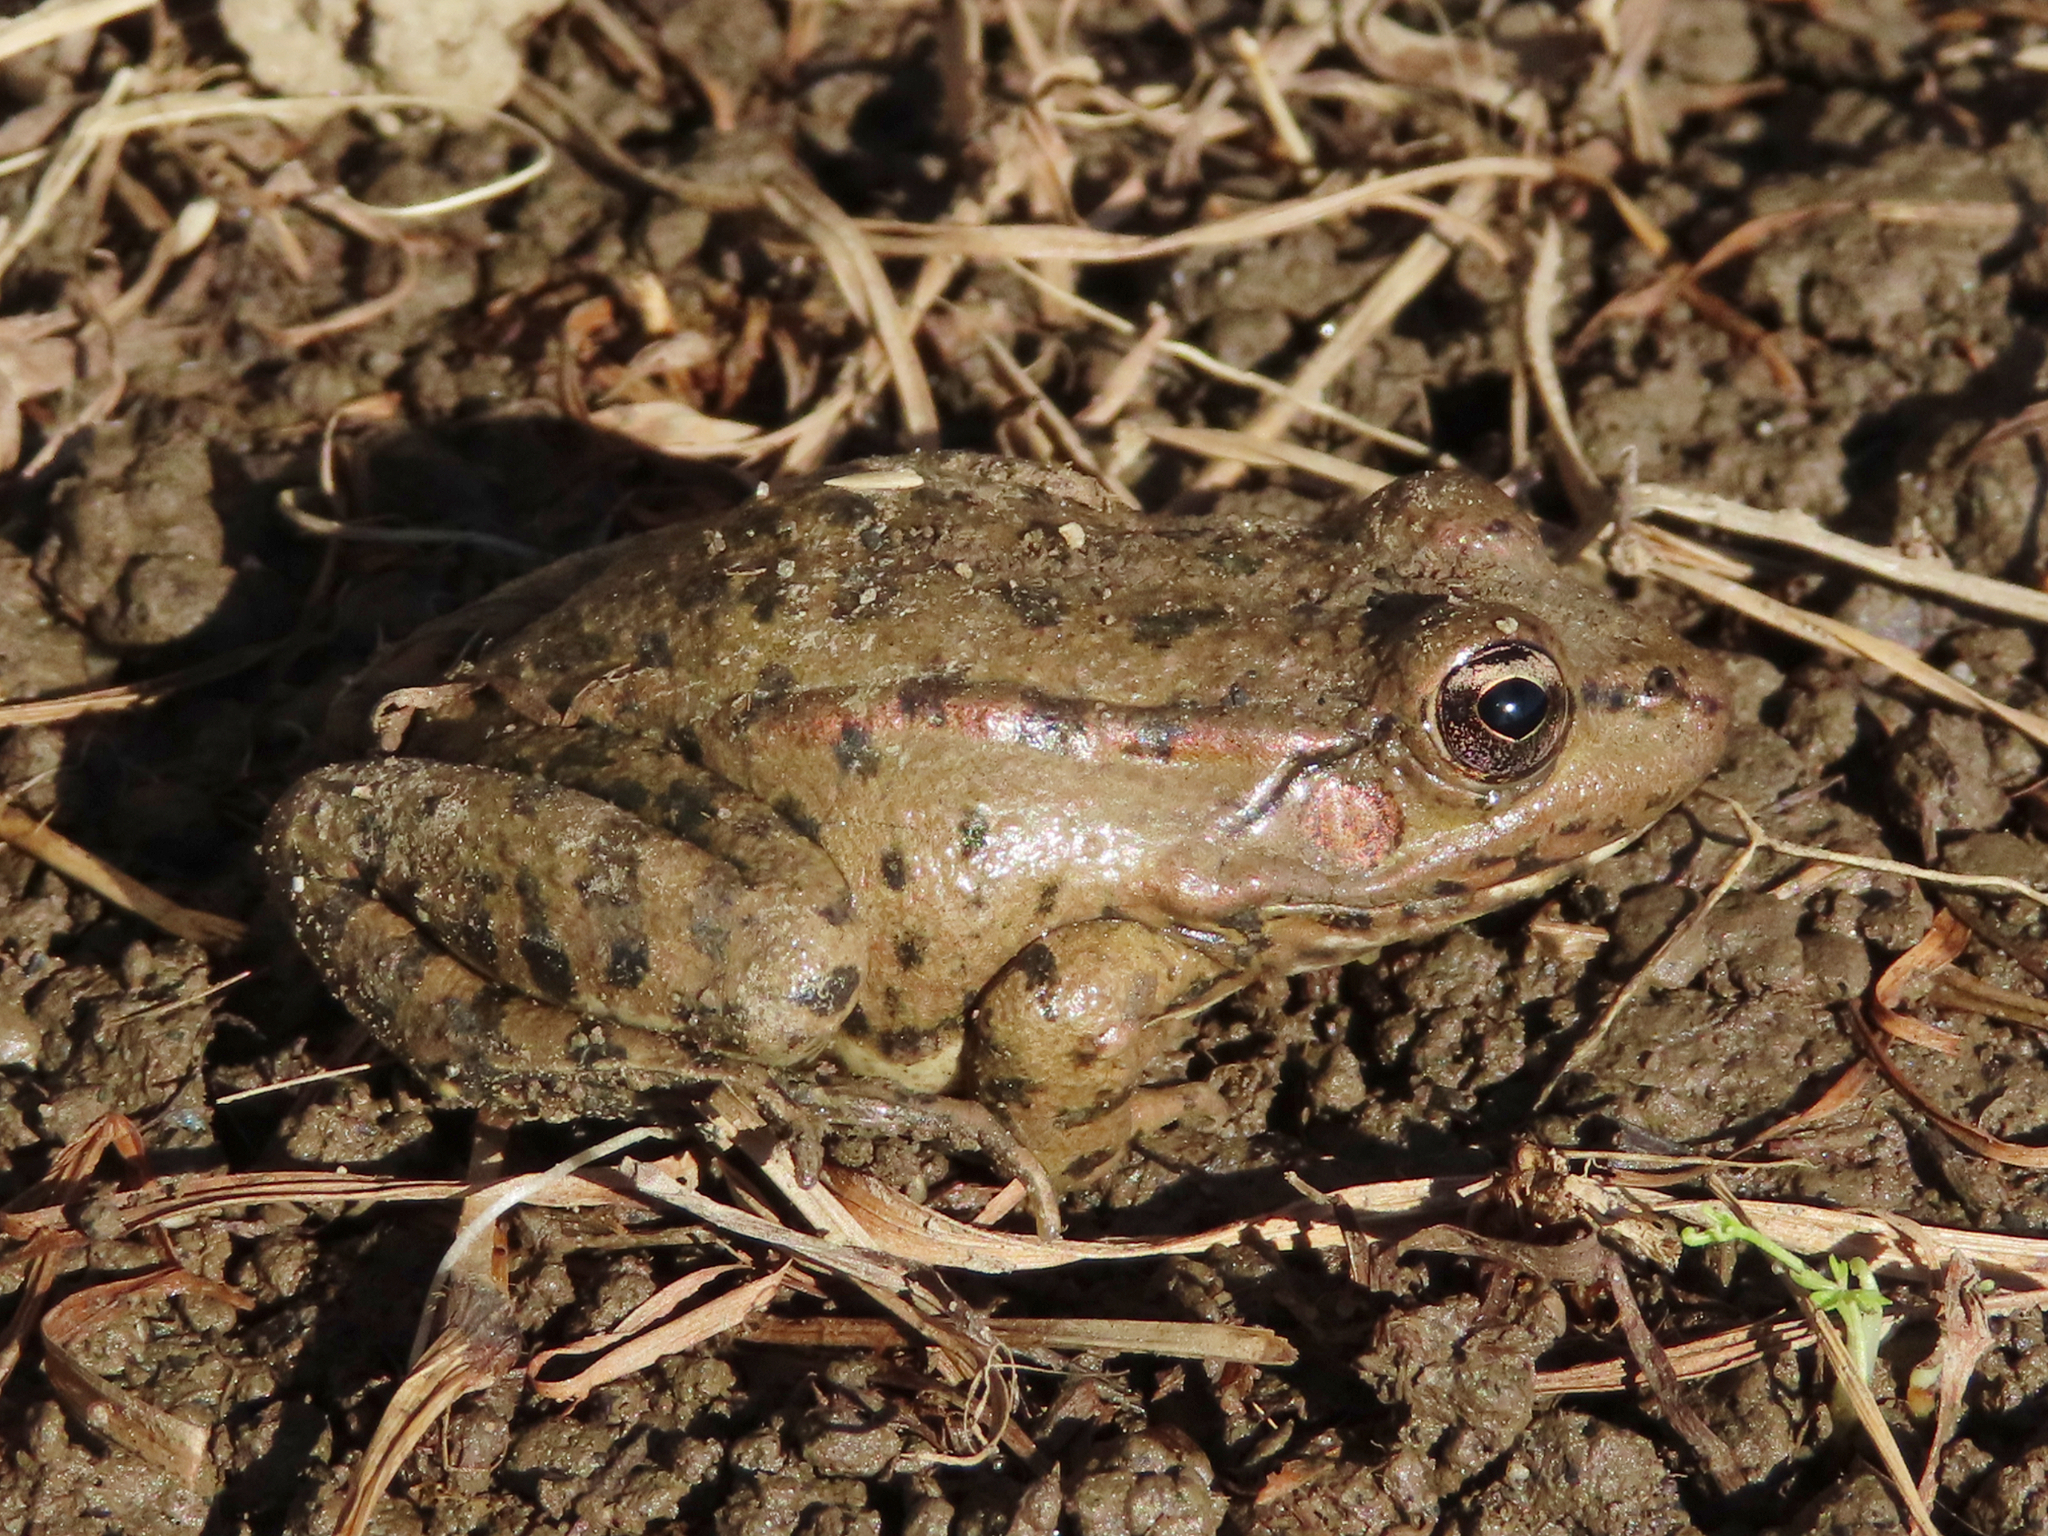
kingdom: Animalia
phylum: Chordata
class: Amphibia
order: Anura
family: Ranidae
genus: Pelophylax
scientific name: Pelophylax ridibundus
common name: Marsh frog
